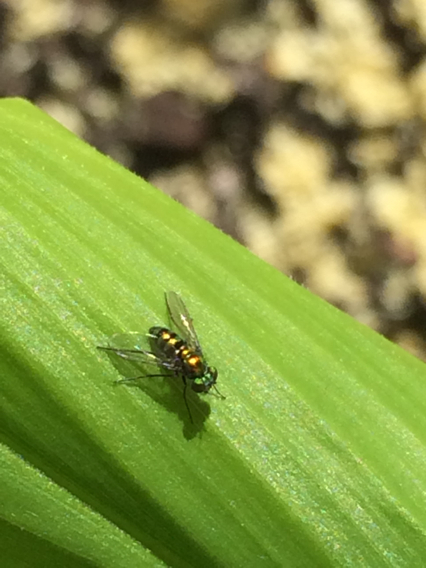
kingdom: Animalia
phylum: Arthropoda
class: Insecta
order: Diptera
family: Dolichopodidae
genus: Condylostylus
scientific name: Condylostylus mundus
